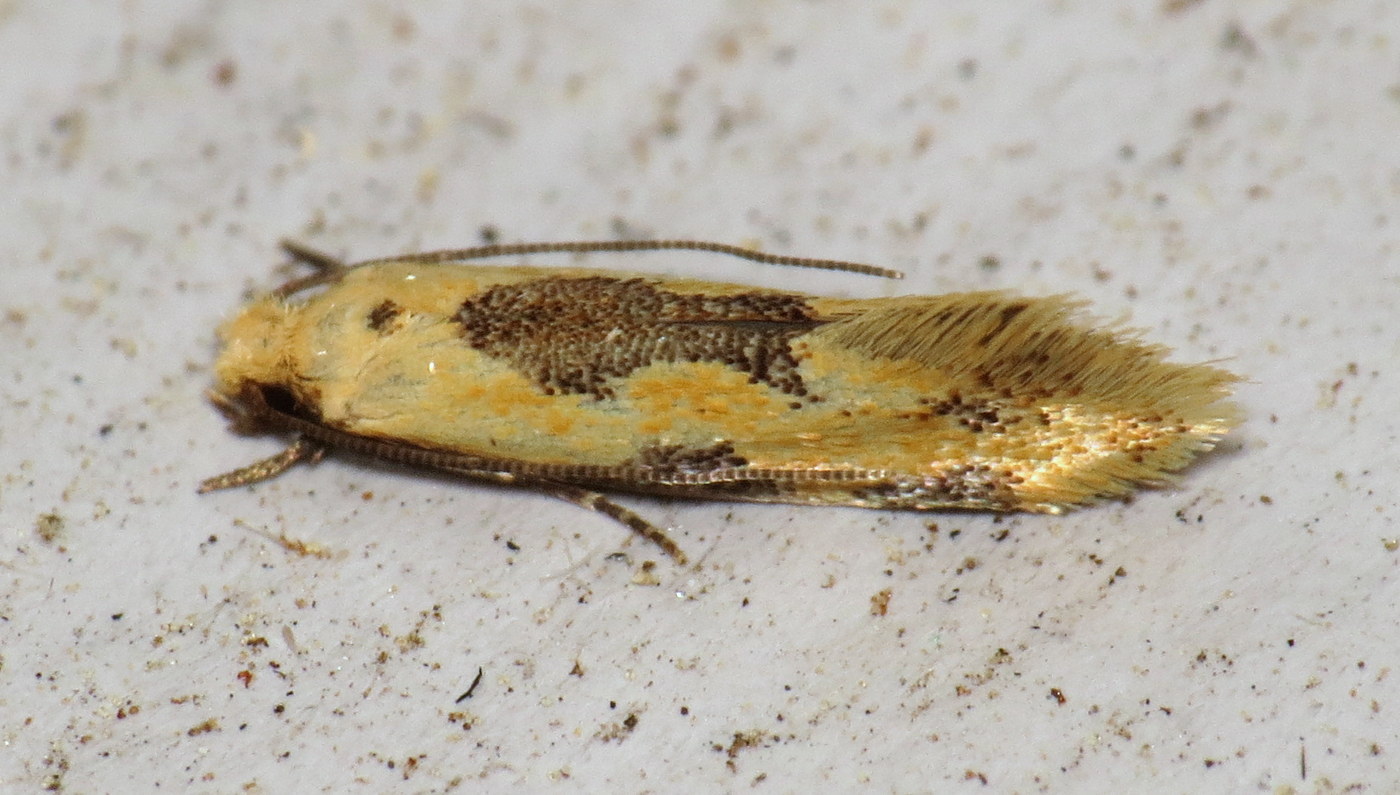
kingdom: Animalia
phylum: Arthropoda
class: Insecta
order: Lepidoptera
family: Meessiidae
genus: Hybroma
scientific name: Hybroma servulella
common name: Yellow wave moth
